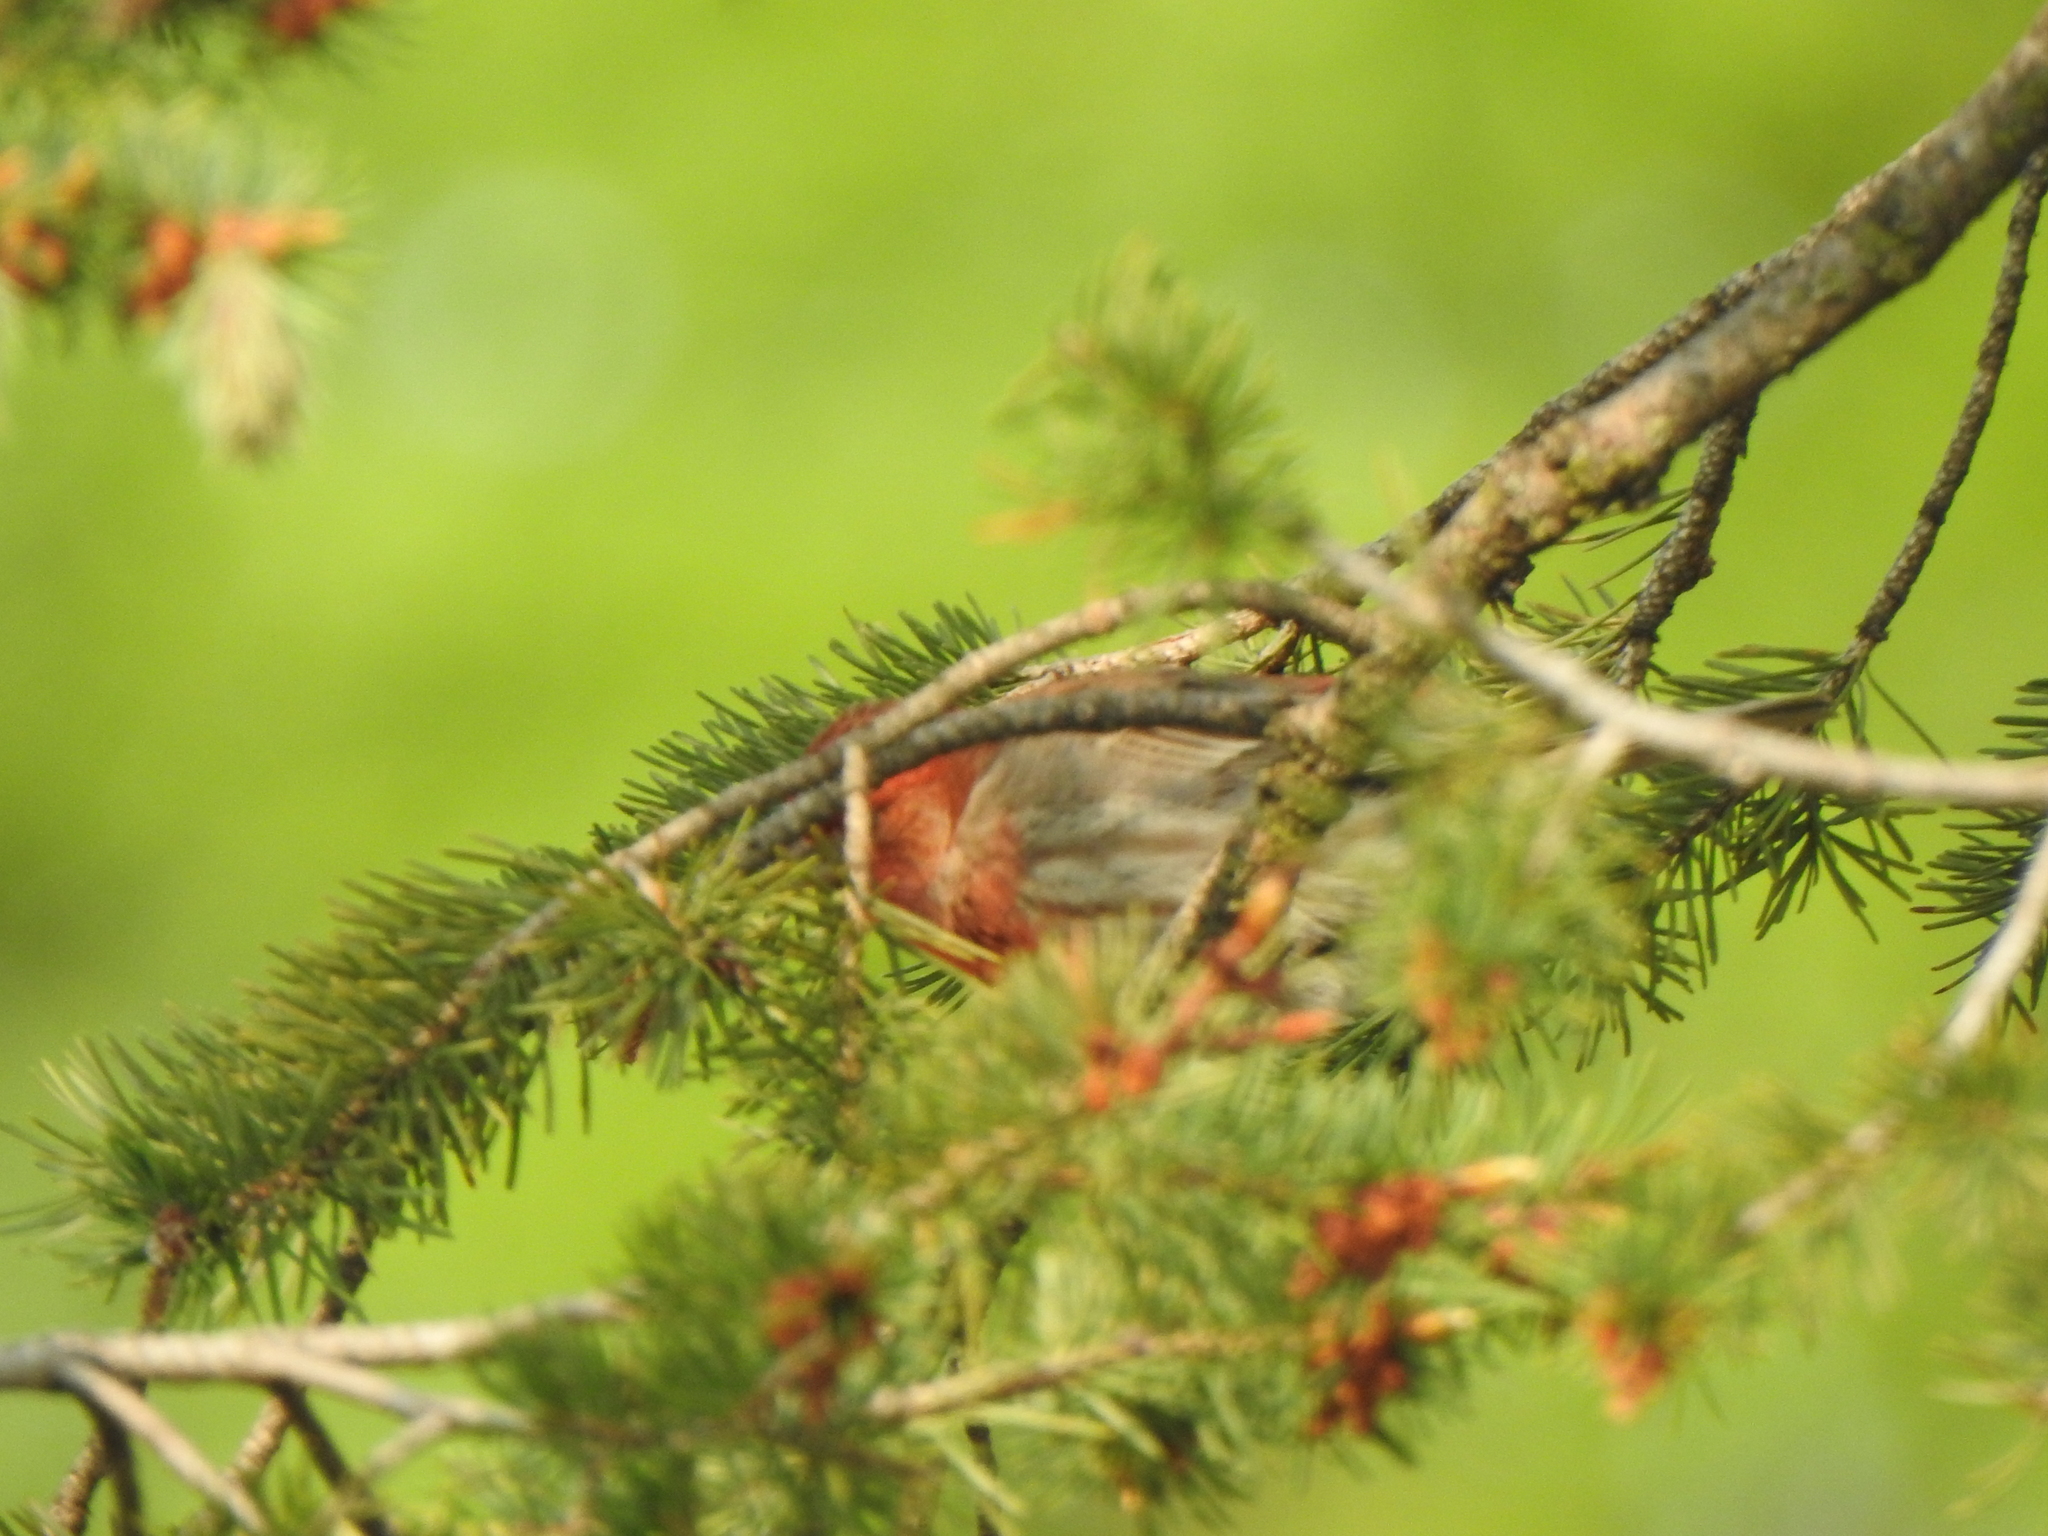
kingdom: Animalia
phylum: Chordata
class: Aves
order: Passeriformes
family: Fringillidae
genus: Haemorhous
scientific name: Haemorhous mexicanus
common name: House finch
